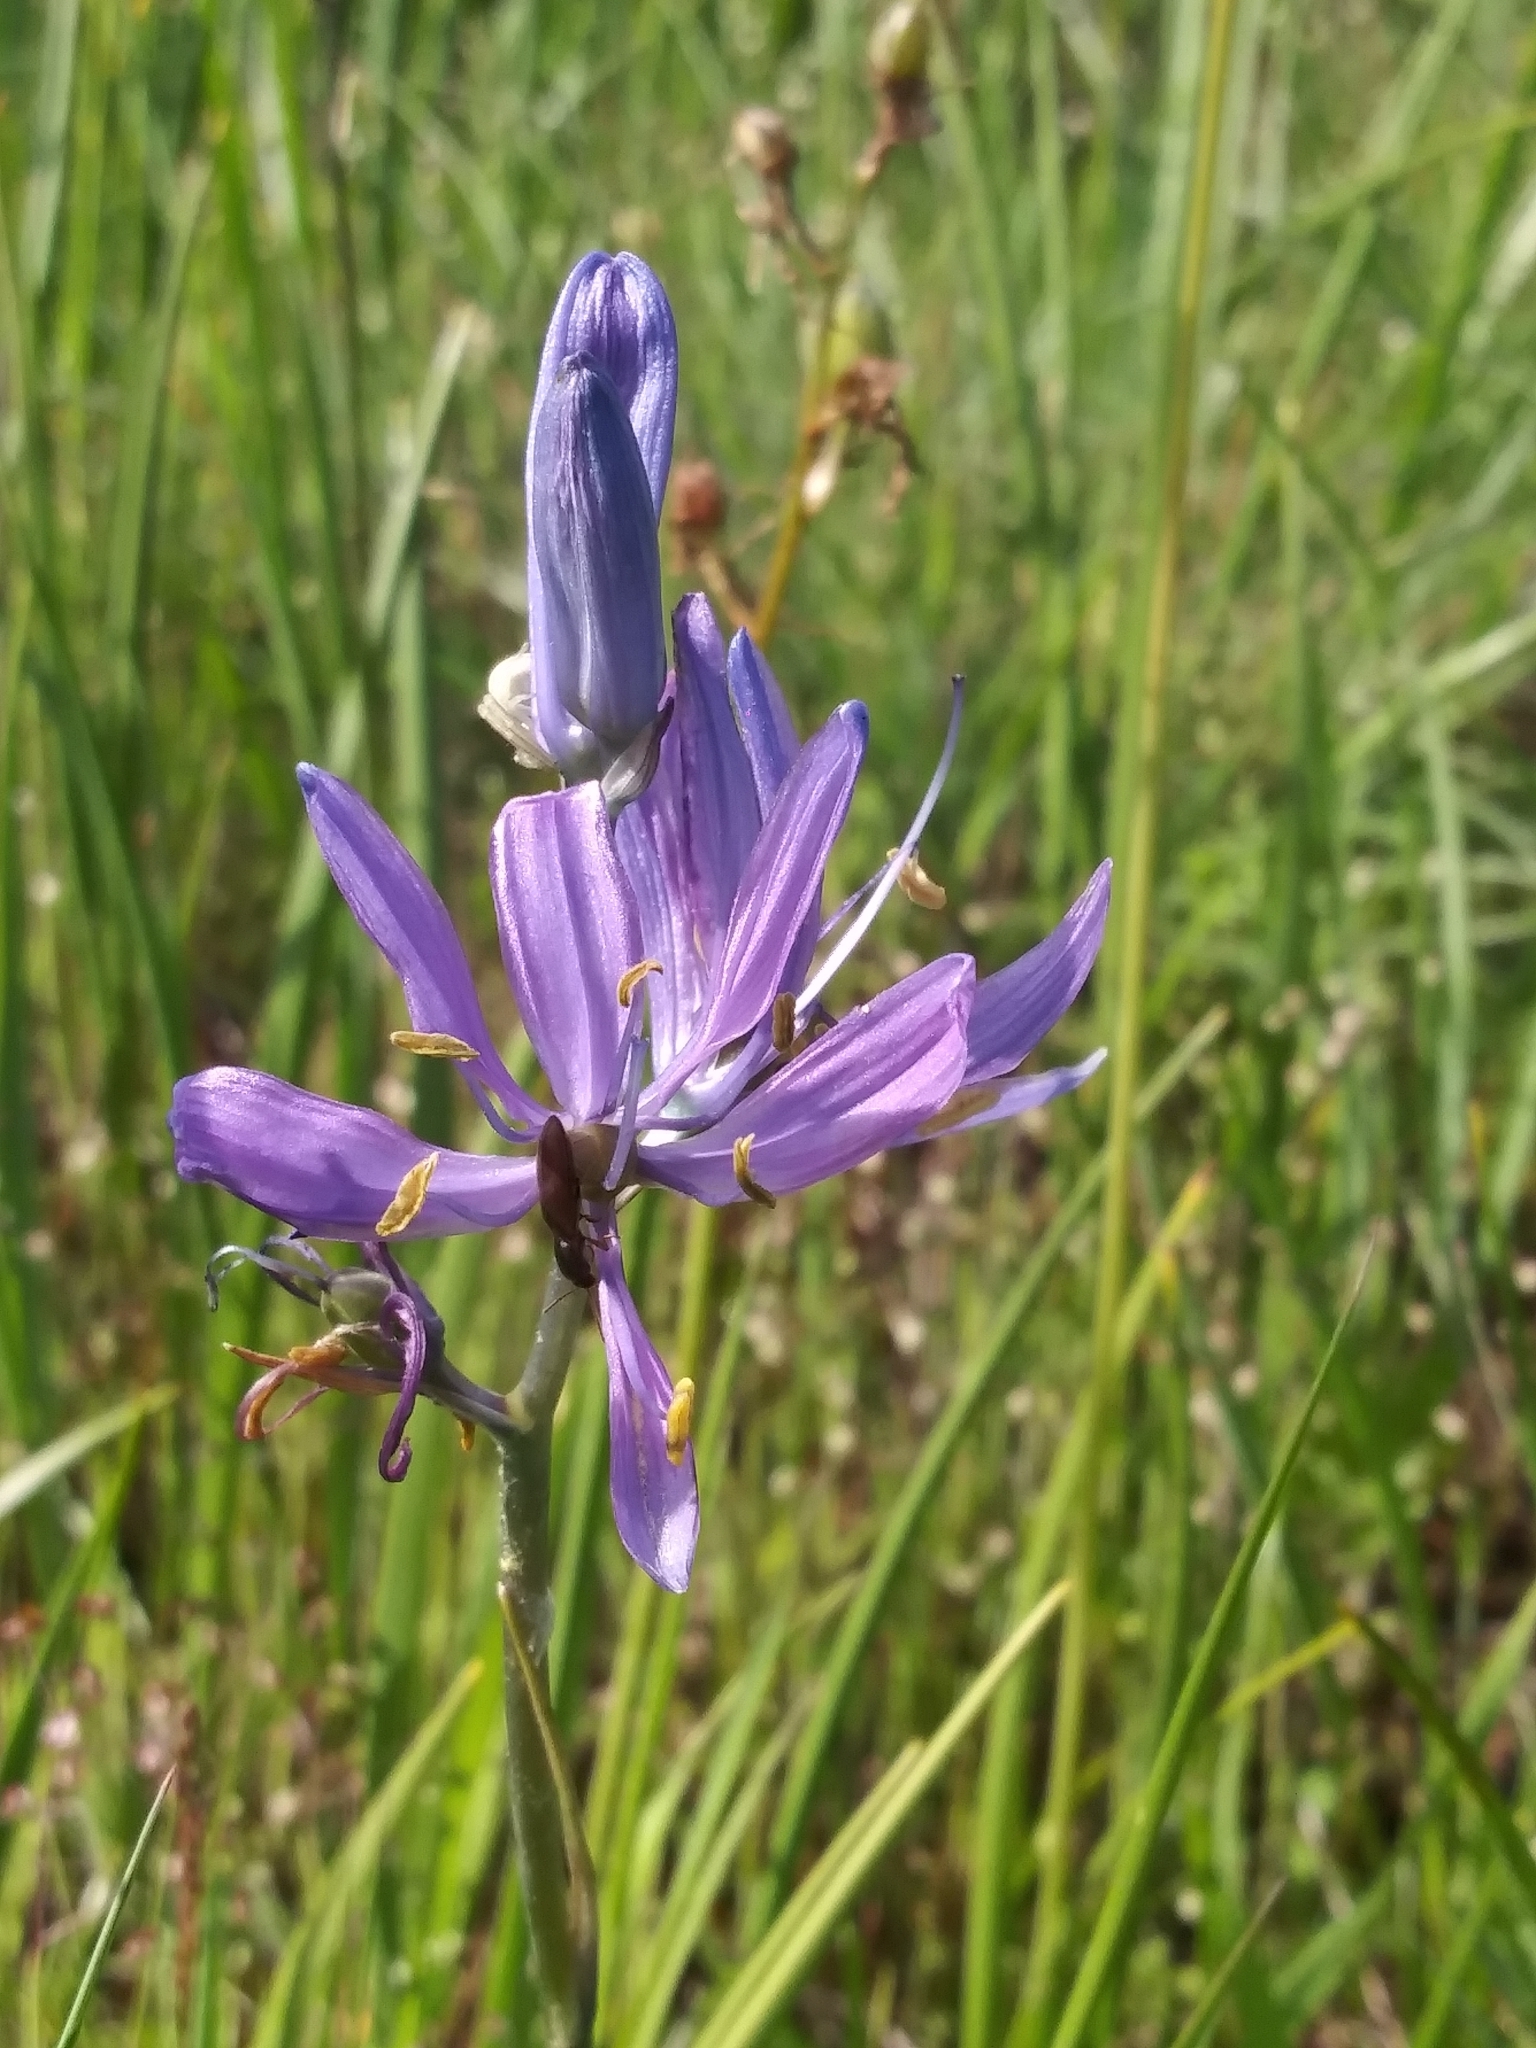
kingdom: Plantae
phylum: Tracheophyta
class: Liliopsida
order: Asparagales
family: Asparagaceae
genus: Camassia
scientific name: Camassia quamash
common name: Common camas
